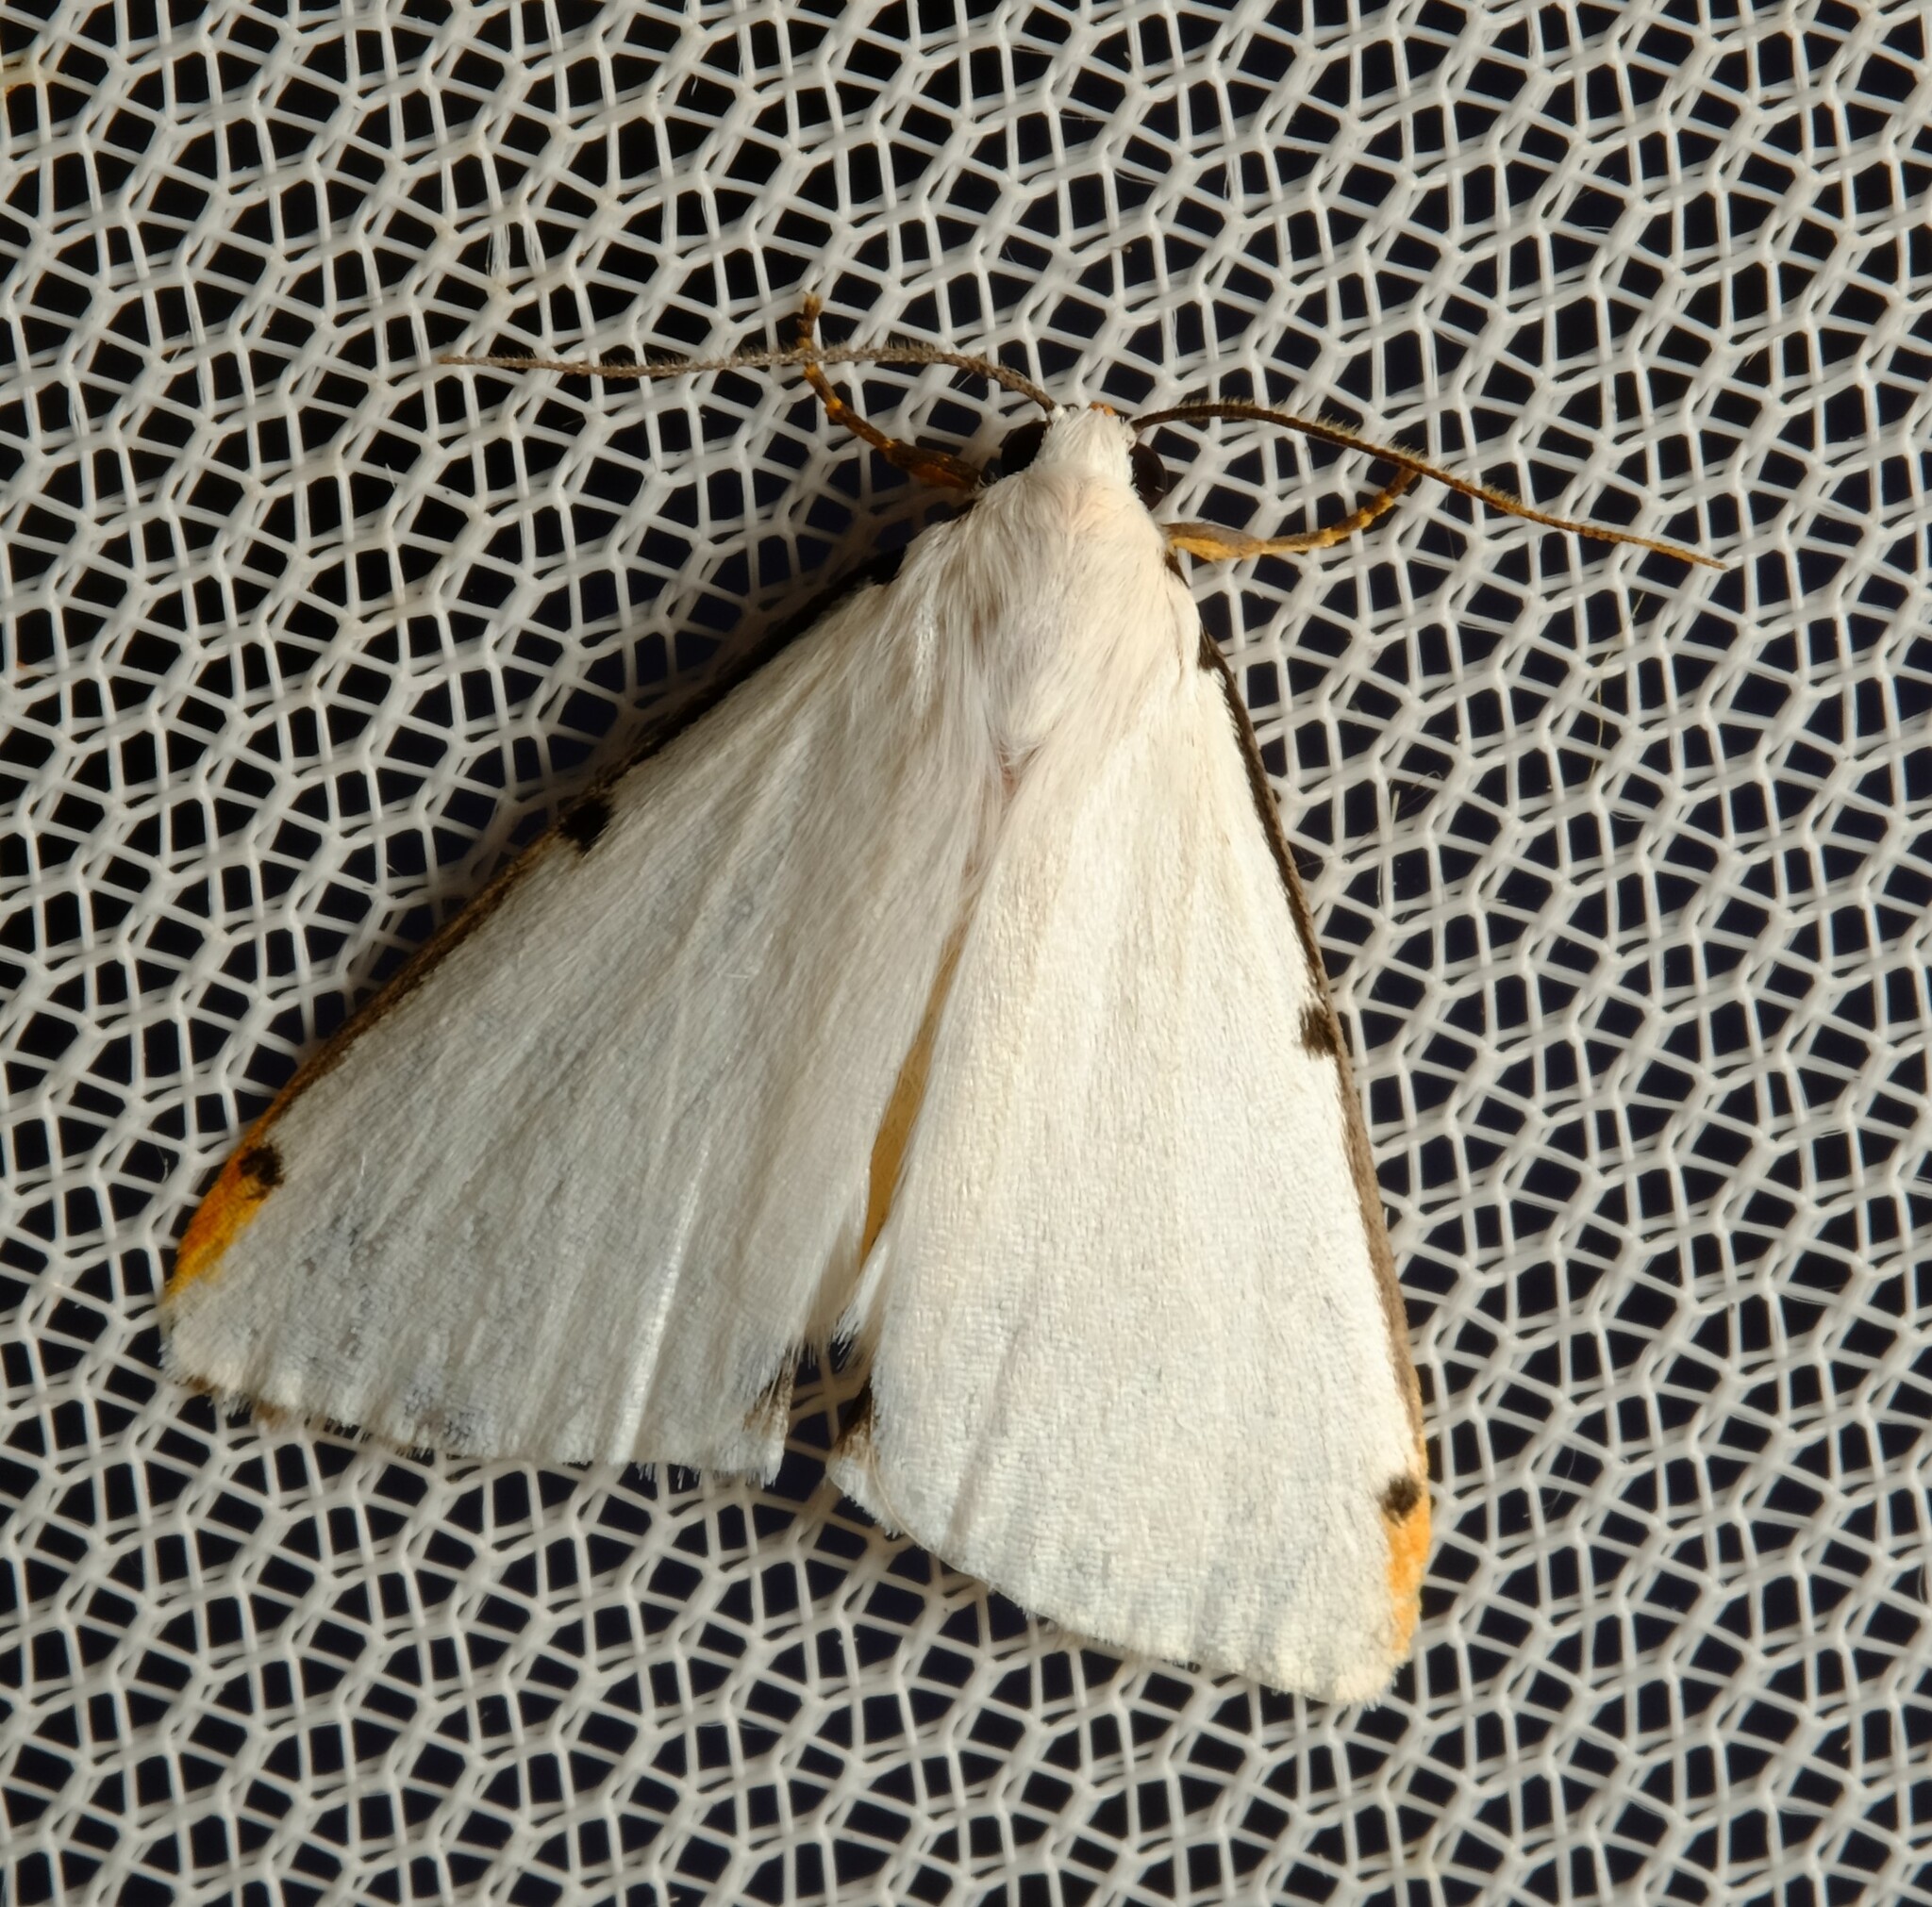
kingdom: Animalia
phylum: Arthropoda
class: Insecta
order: Lepidoptera
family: Erebidae
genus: Termessa
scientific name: Termessa nivosa
